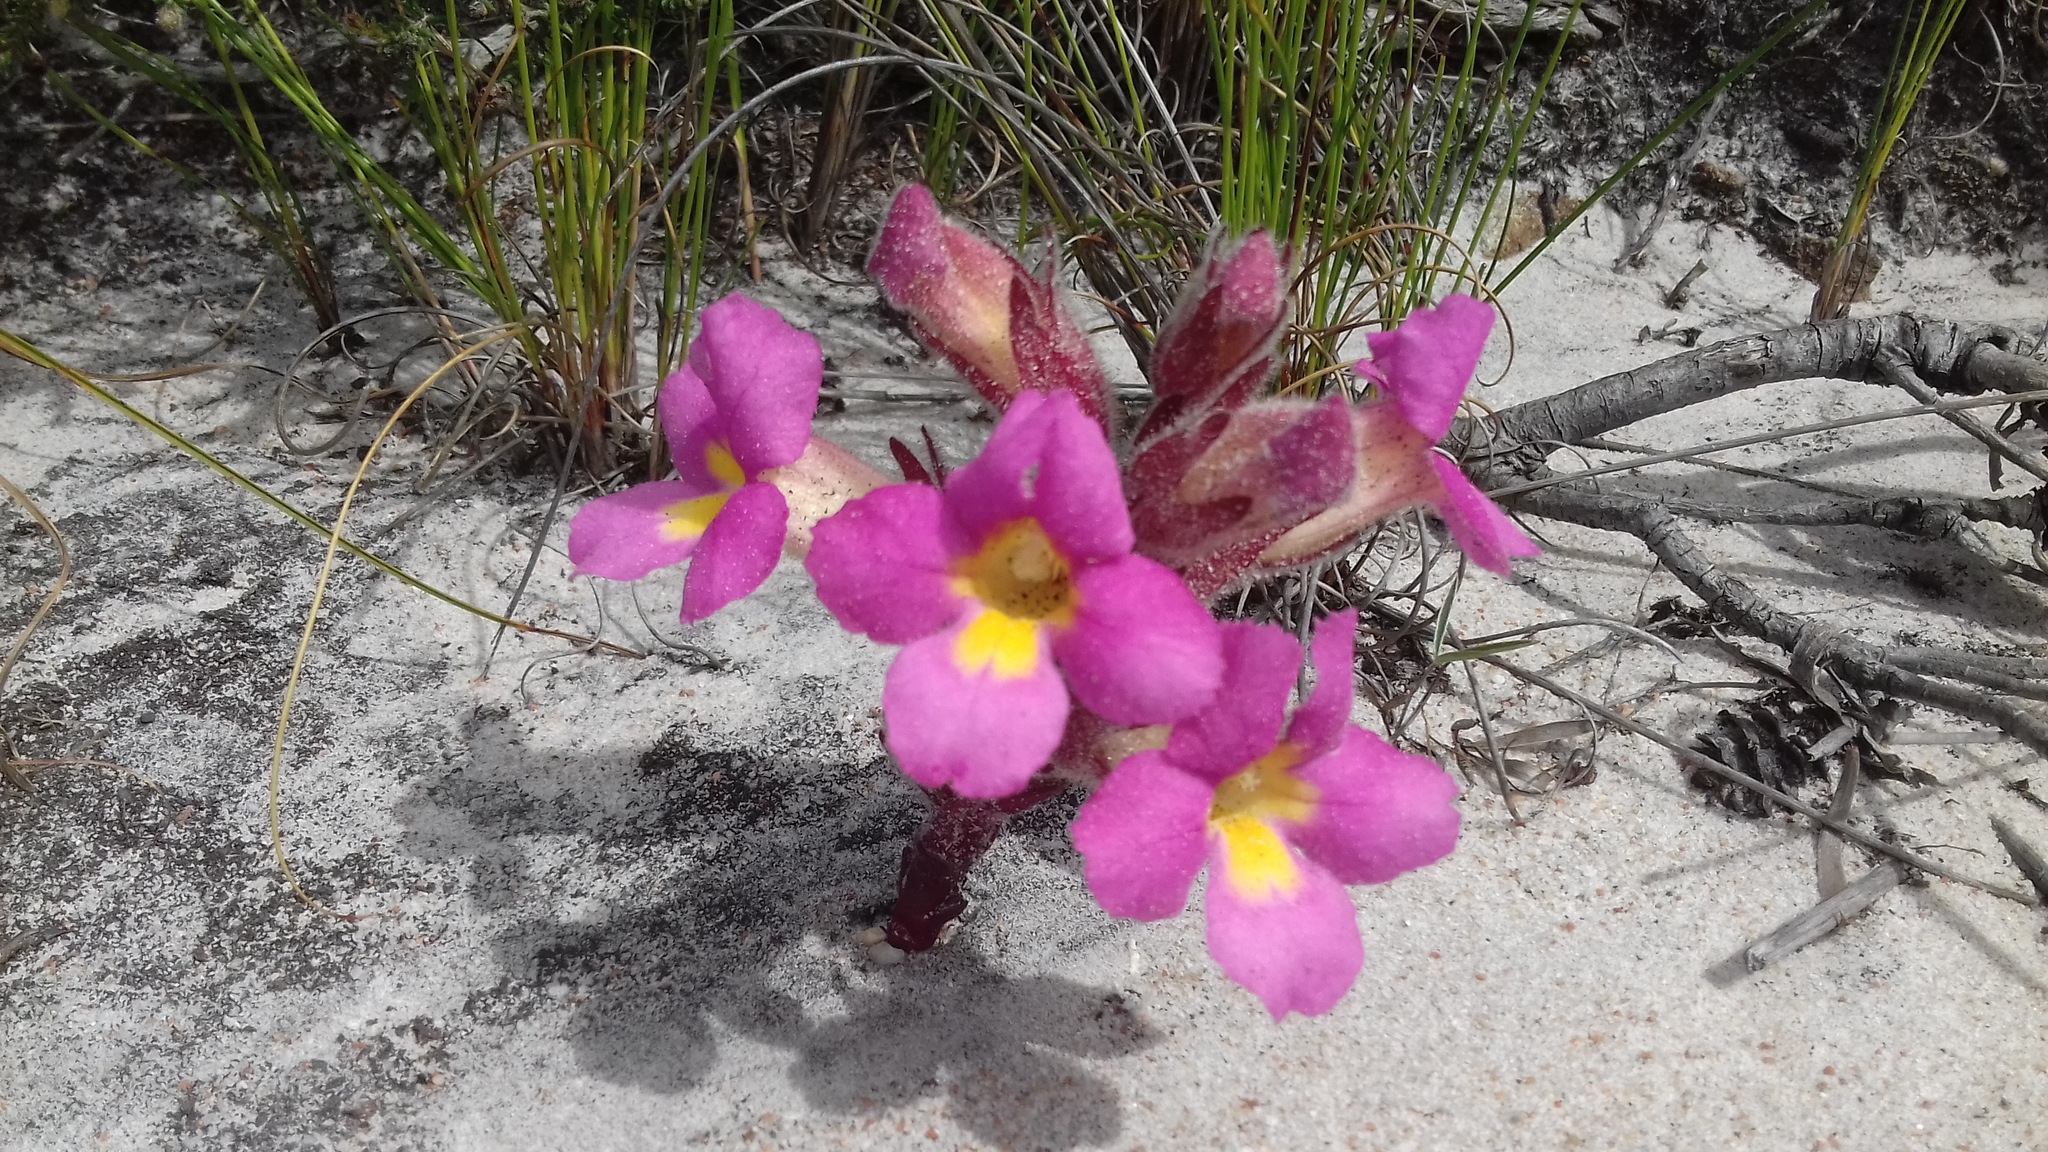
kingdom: Plantae
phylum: Tracheophyta
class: Magnoliopsida
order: Lamiales
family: Orobanchaceae
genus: Harveya
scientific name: Harveya purpurea
